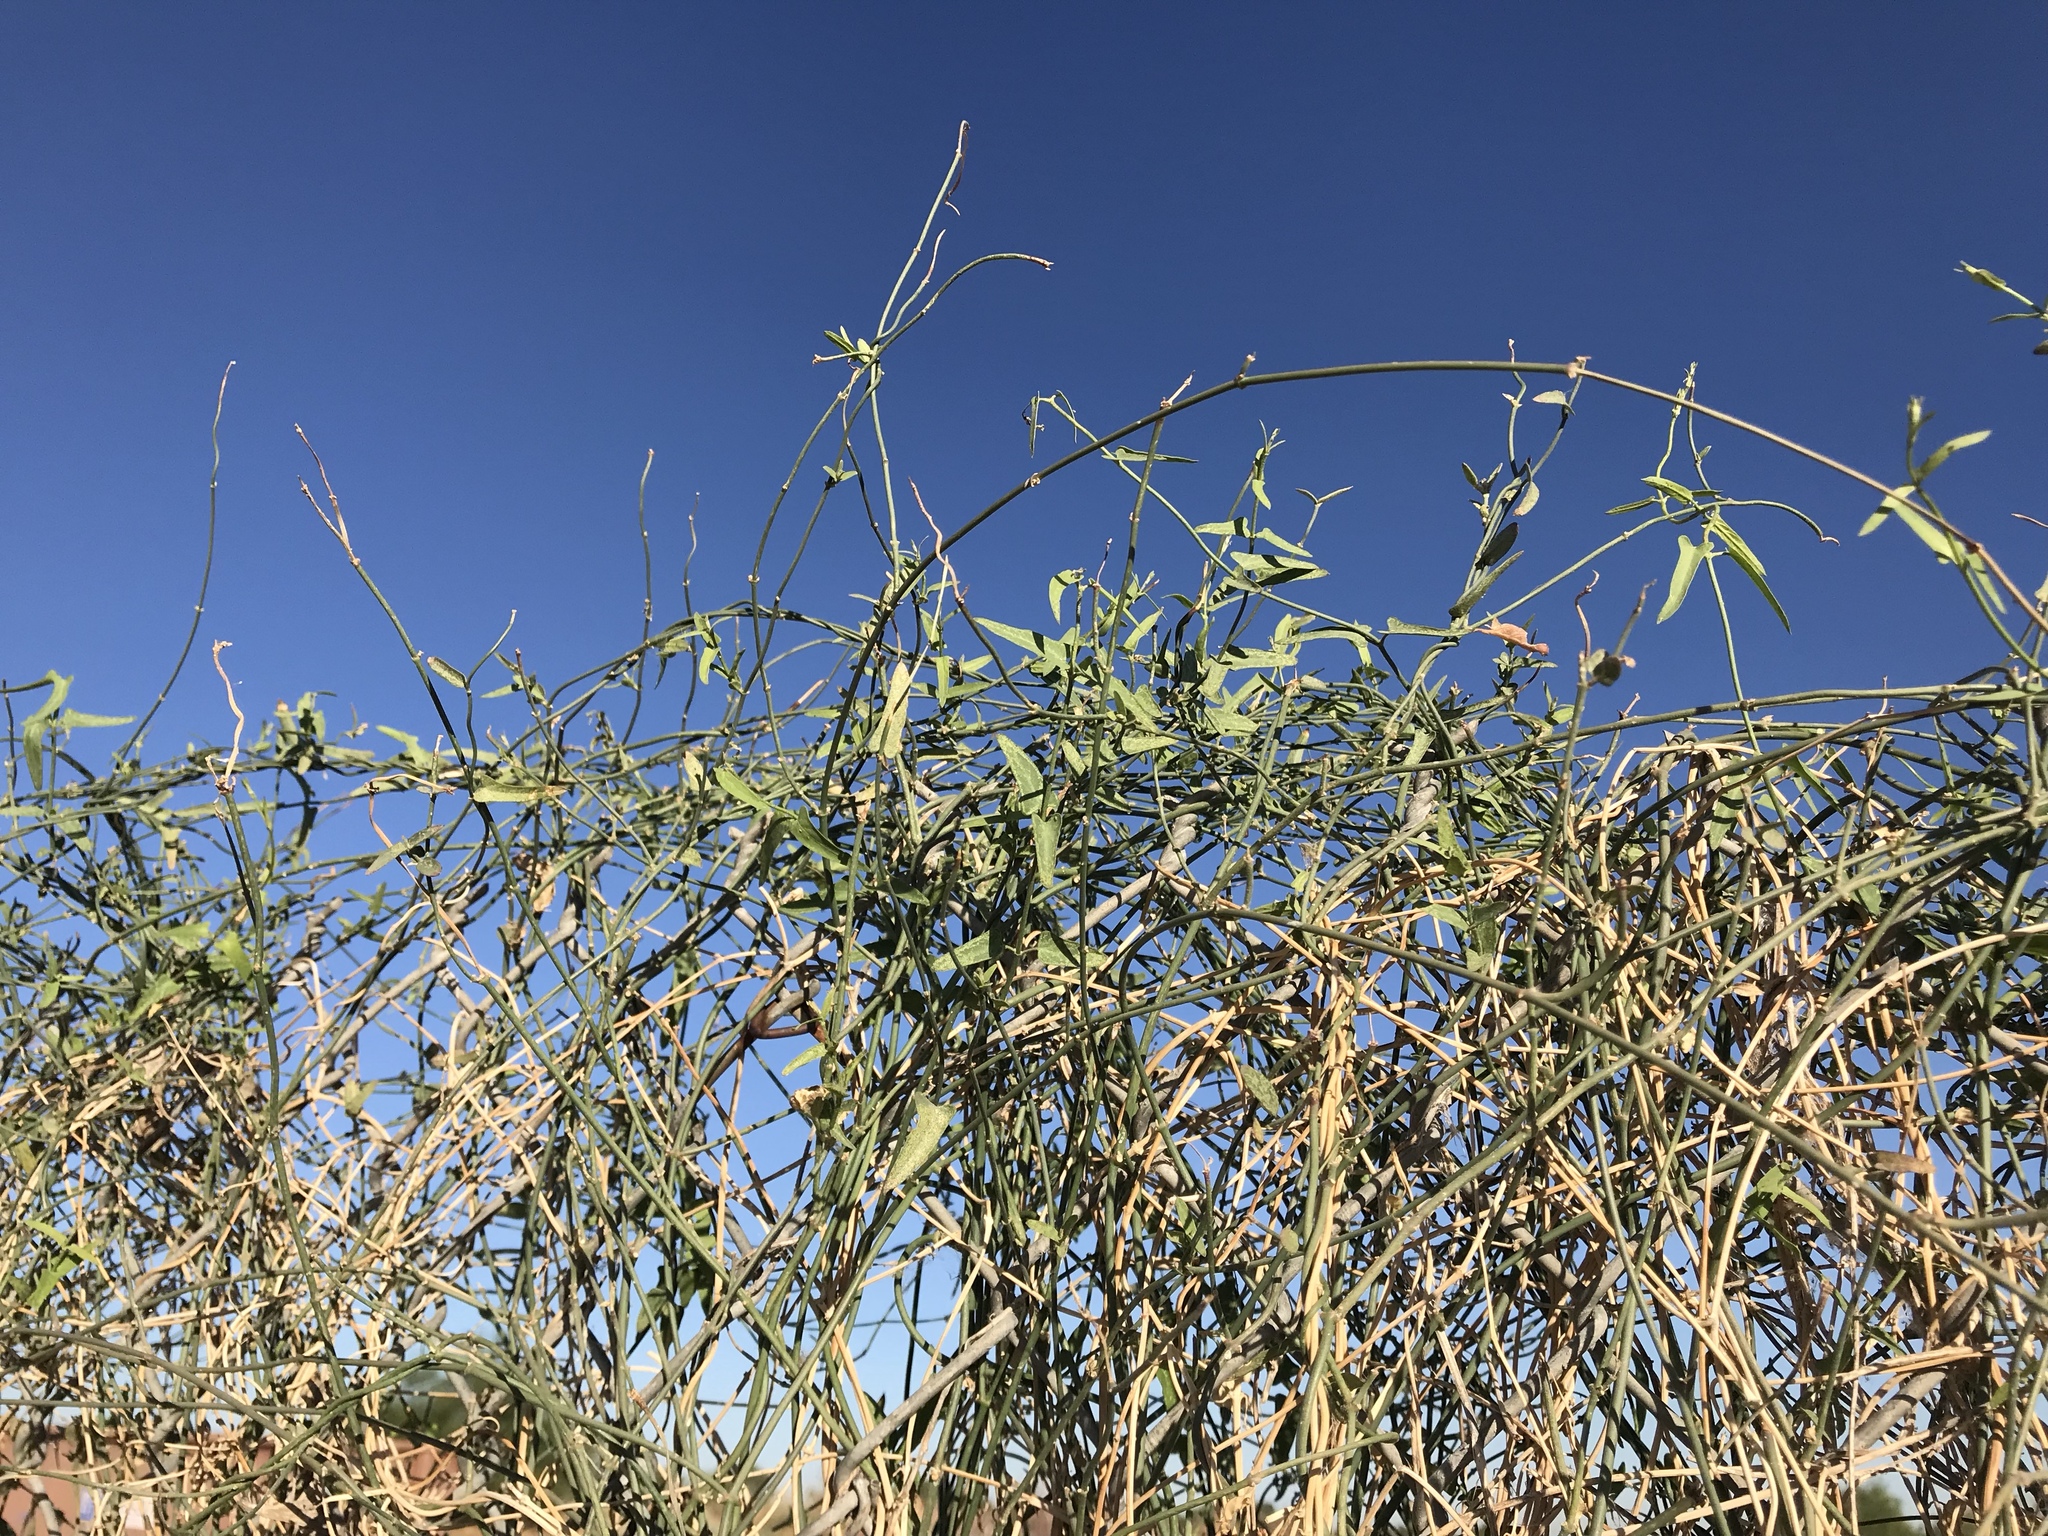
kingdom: Plantae
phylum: Tracheophyta
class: Magnoliopsida
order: Gentianales
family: Apocynaceae
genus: Funastrum
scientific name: Funastrum heterophyllum
